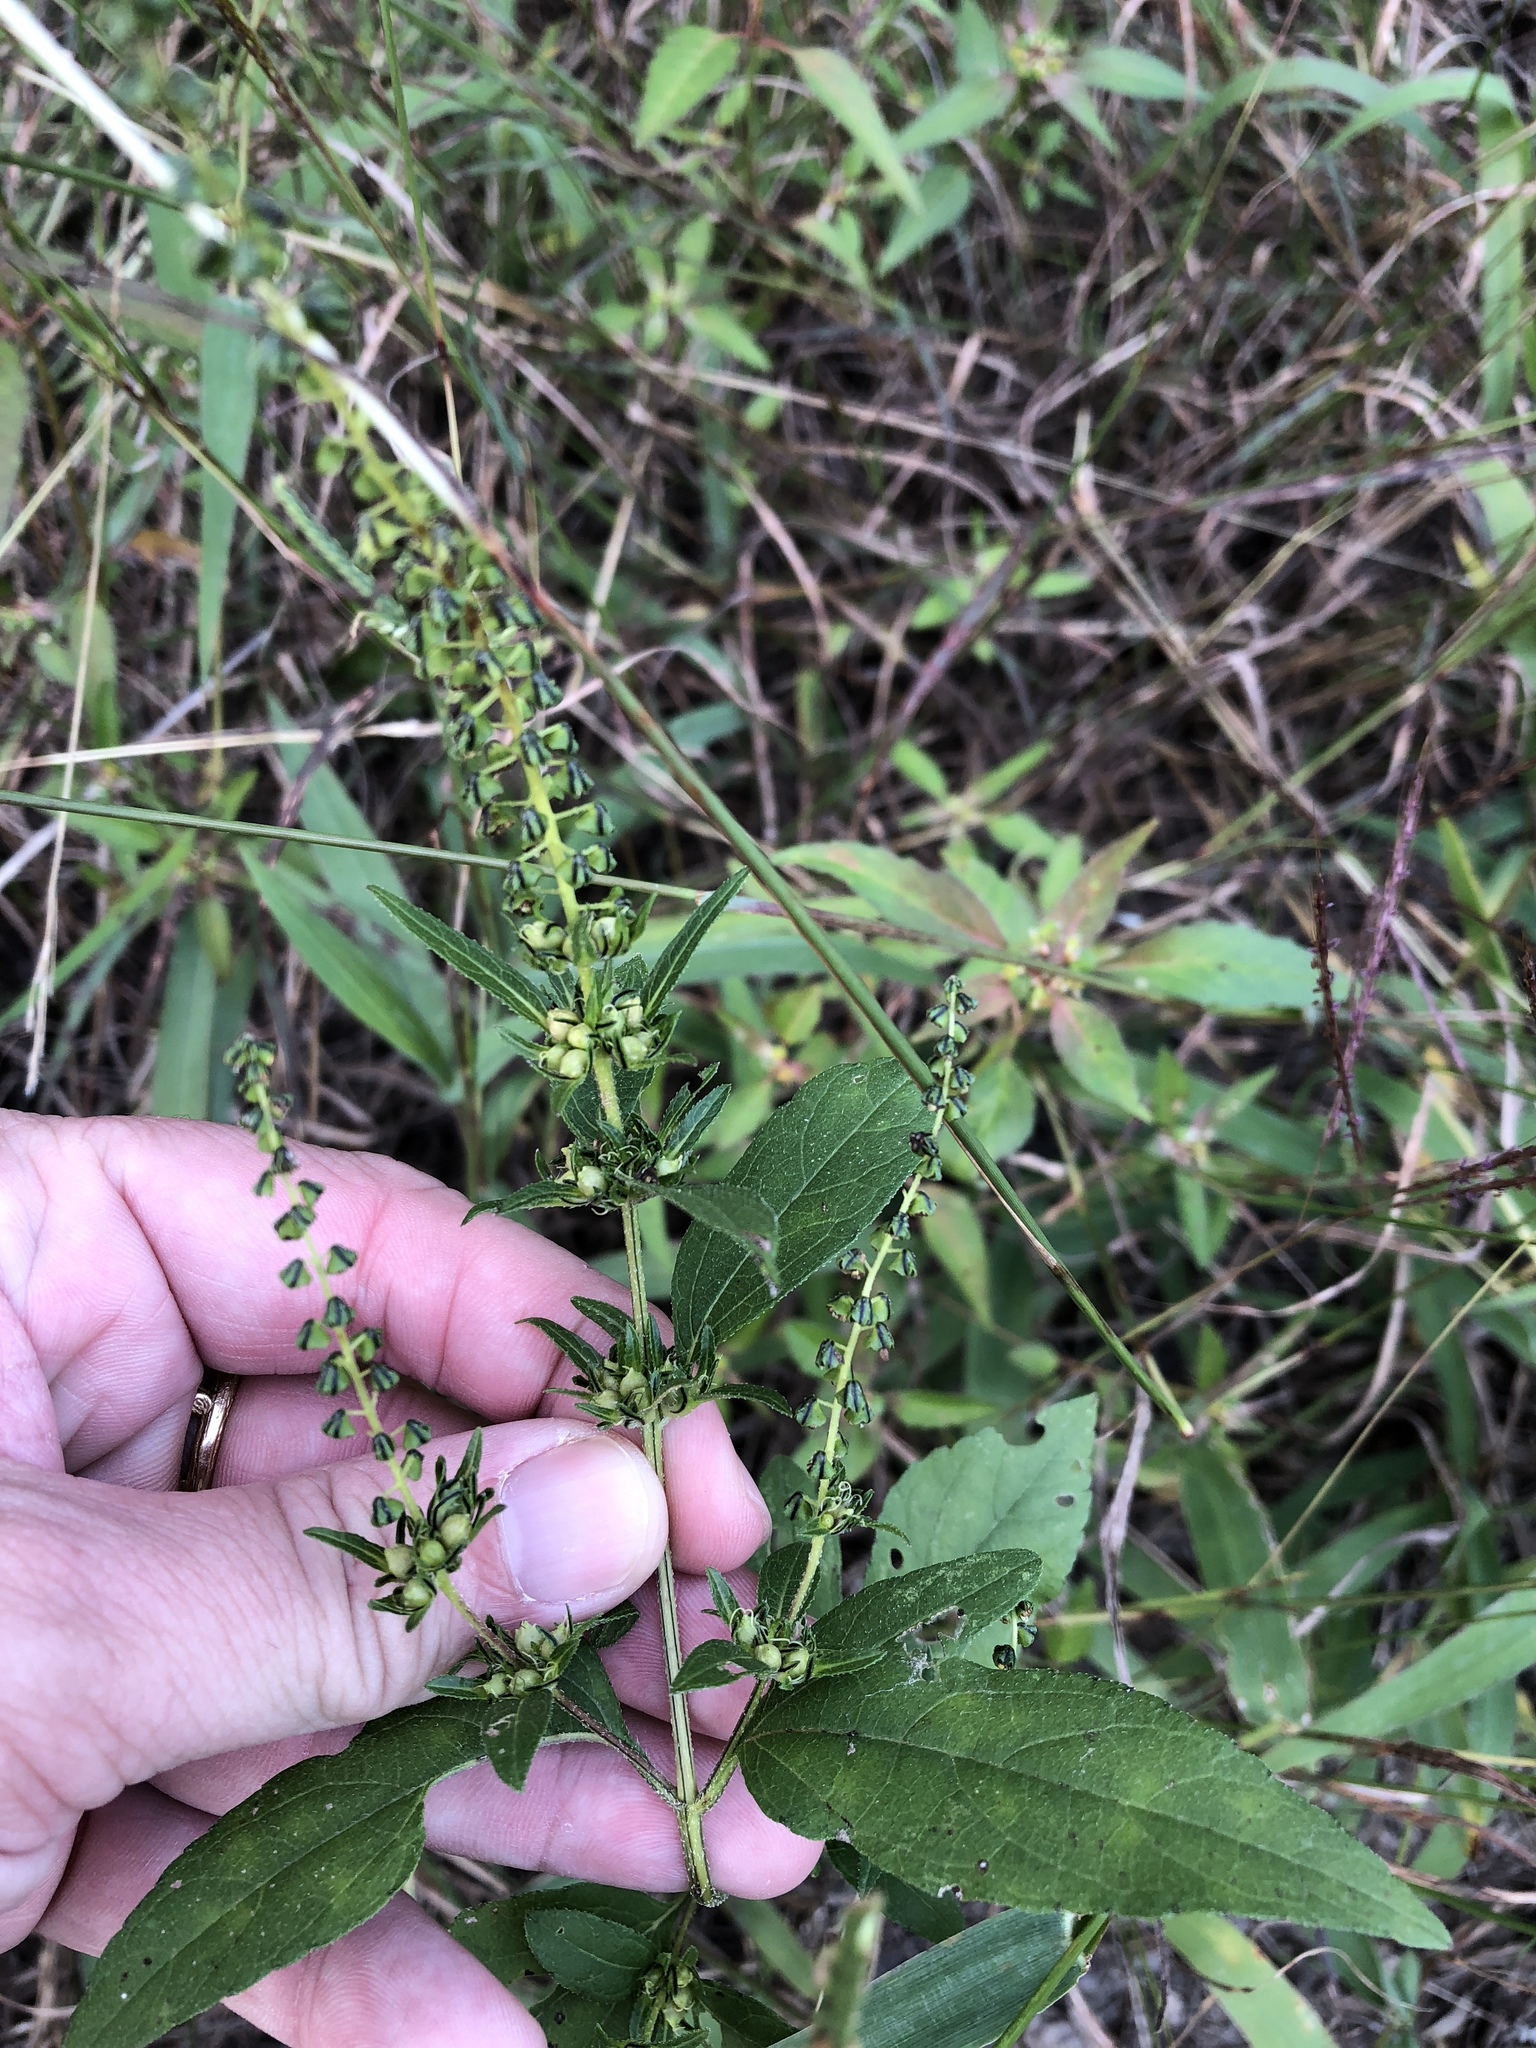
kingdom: Plantae
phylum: Tracheophyta
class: Magnoliopsida
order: Asterales
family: Asteraceae
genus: Ambrosia
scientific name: Ambrosia trifida
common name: Giant ragweed
